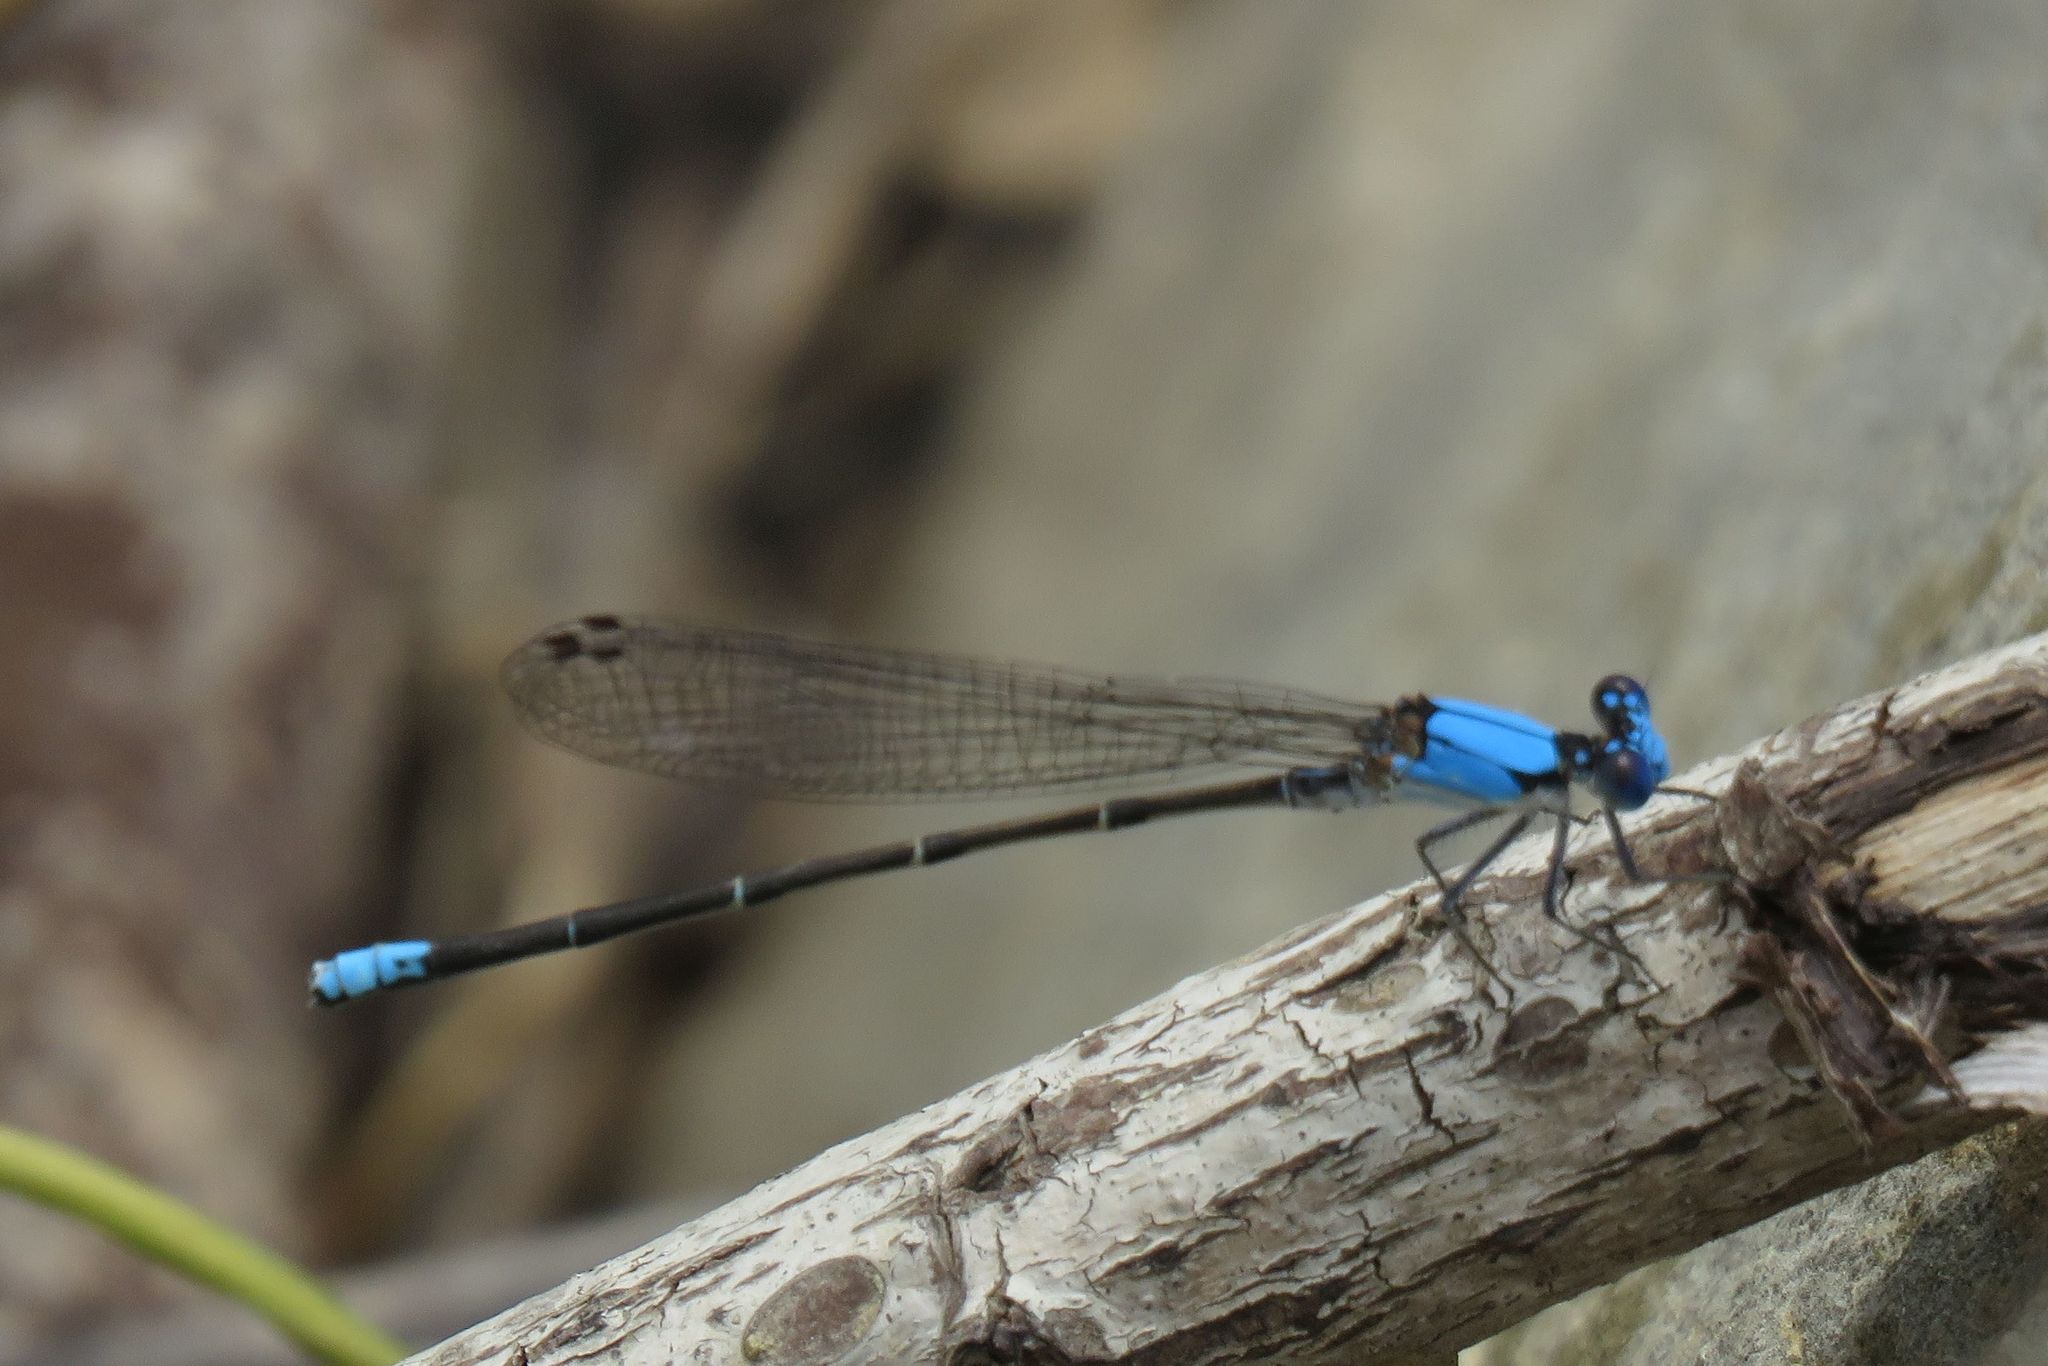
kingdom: Animalia
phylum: Arthropoda
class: Insecta
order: Odonata
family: Coenagrionidae
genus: Argia
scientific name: Argia apicalis
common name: Blue-fronted dancer
